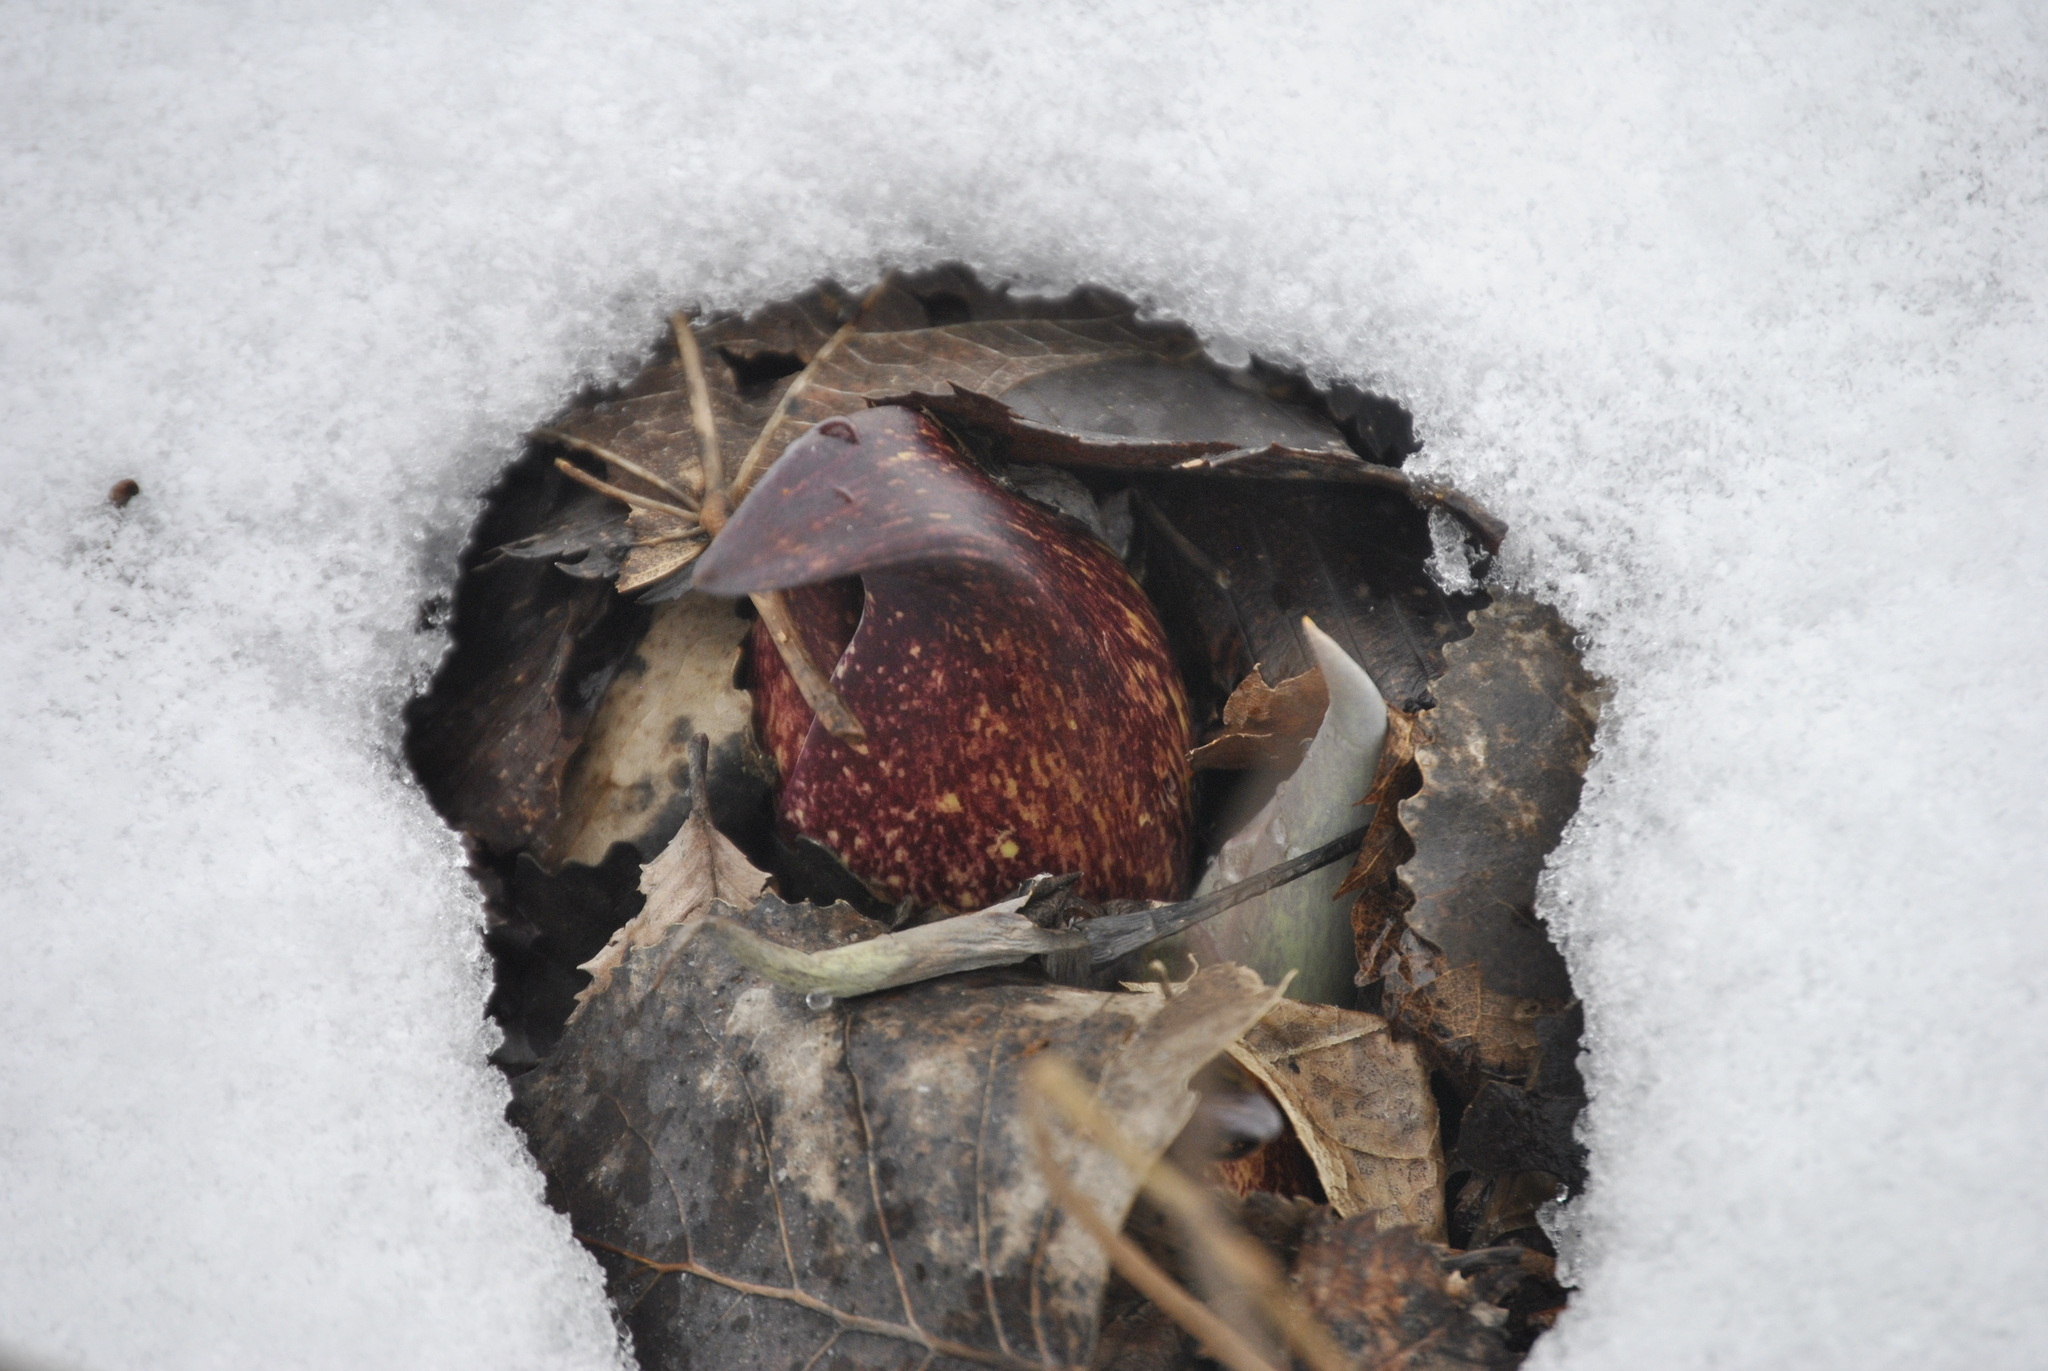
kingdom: Plantae
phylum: Tracheophyta
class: Liliopsida
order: Alismatales
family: Araceae
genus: Symplocarpus
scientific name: Symplocarpus foetidus
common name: Eastern skunk cabbage
